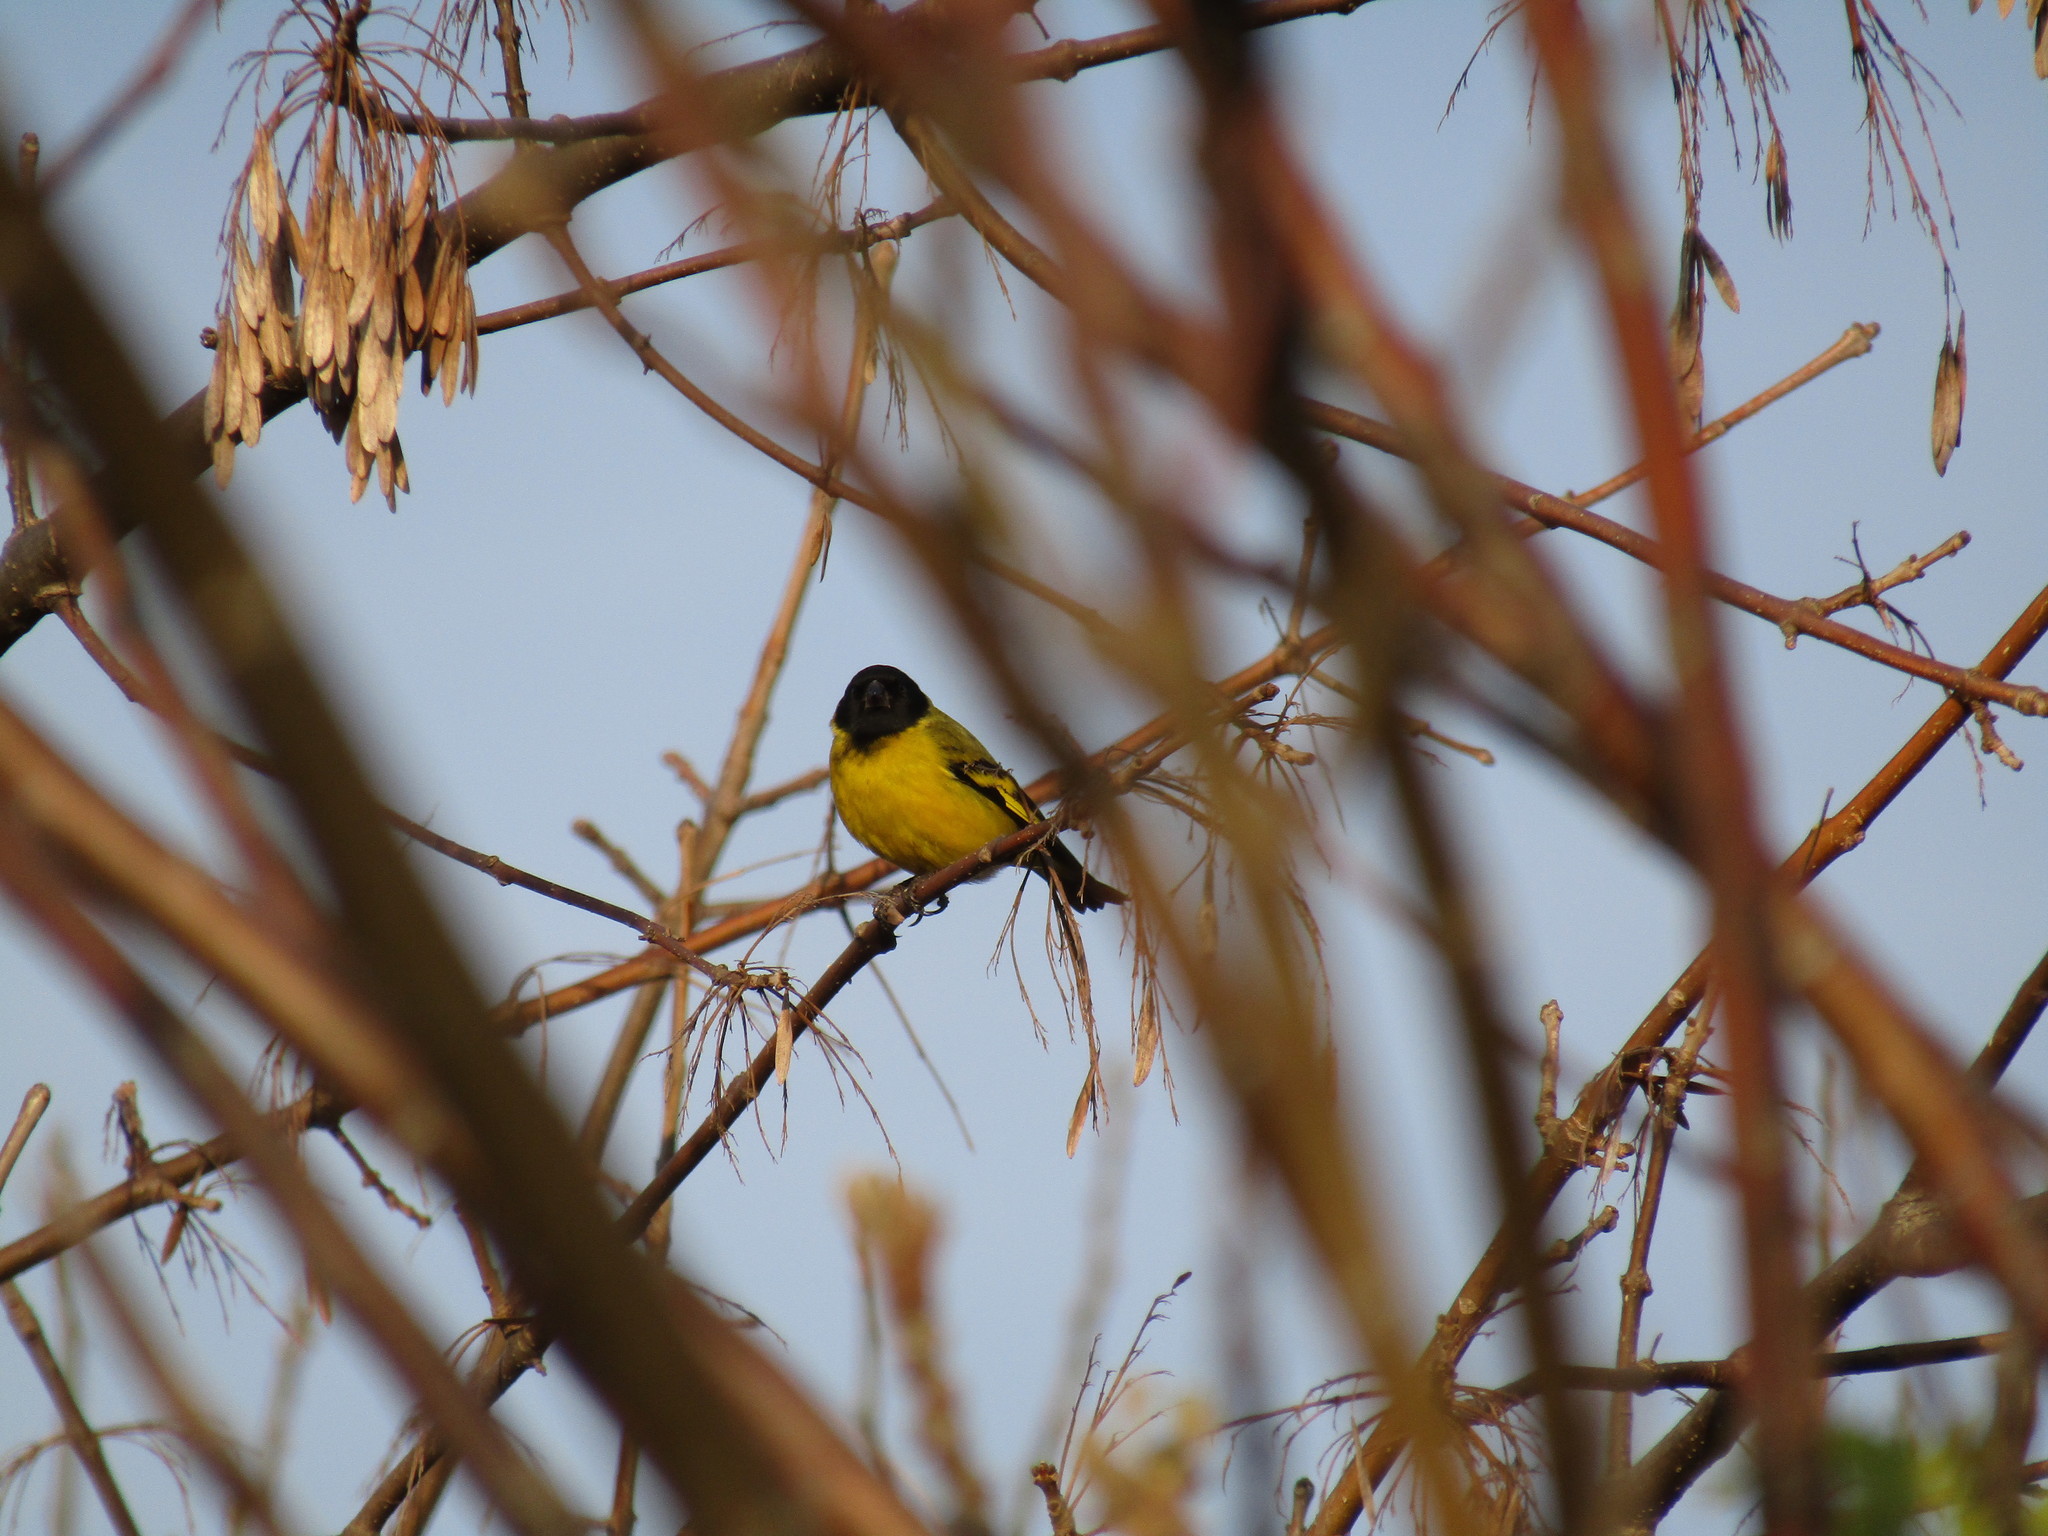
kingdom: Animalia
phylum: Chordata
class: Aves
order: Passeriformes
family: Fringillidae
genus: Spinus
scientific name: Spinus magellanicus
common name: Hooded siskin
